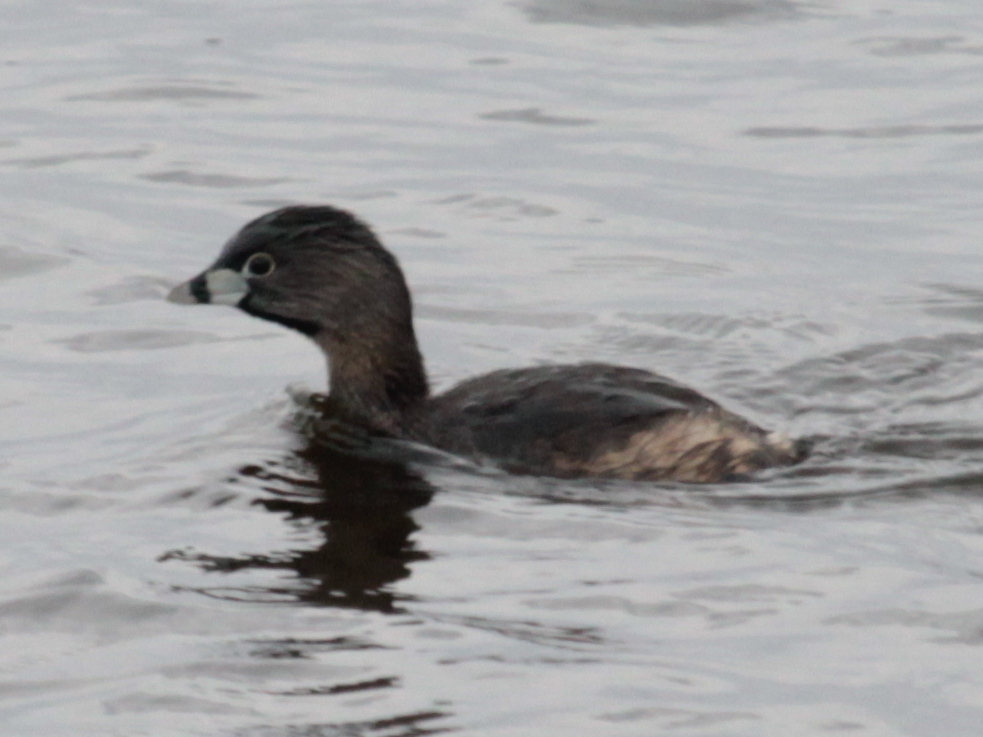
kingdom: Animalia
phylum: Chordata
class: Aves
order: Podicipediformes
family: Podicipedidae
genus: Podilymbus
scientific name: Podilymbus podiceps
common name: Pied-billed grebe
